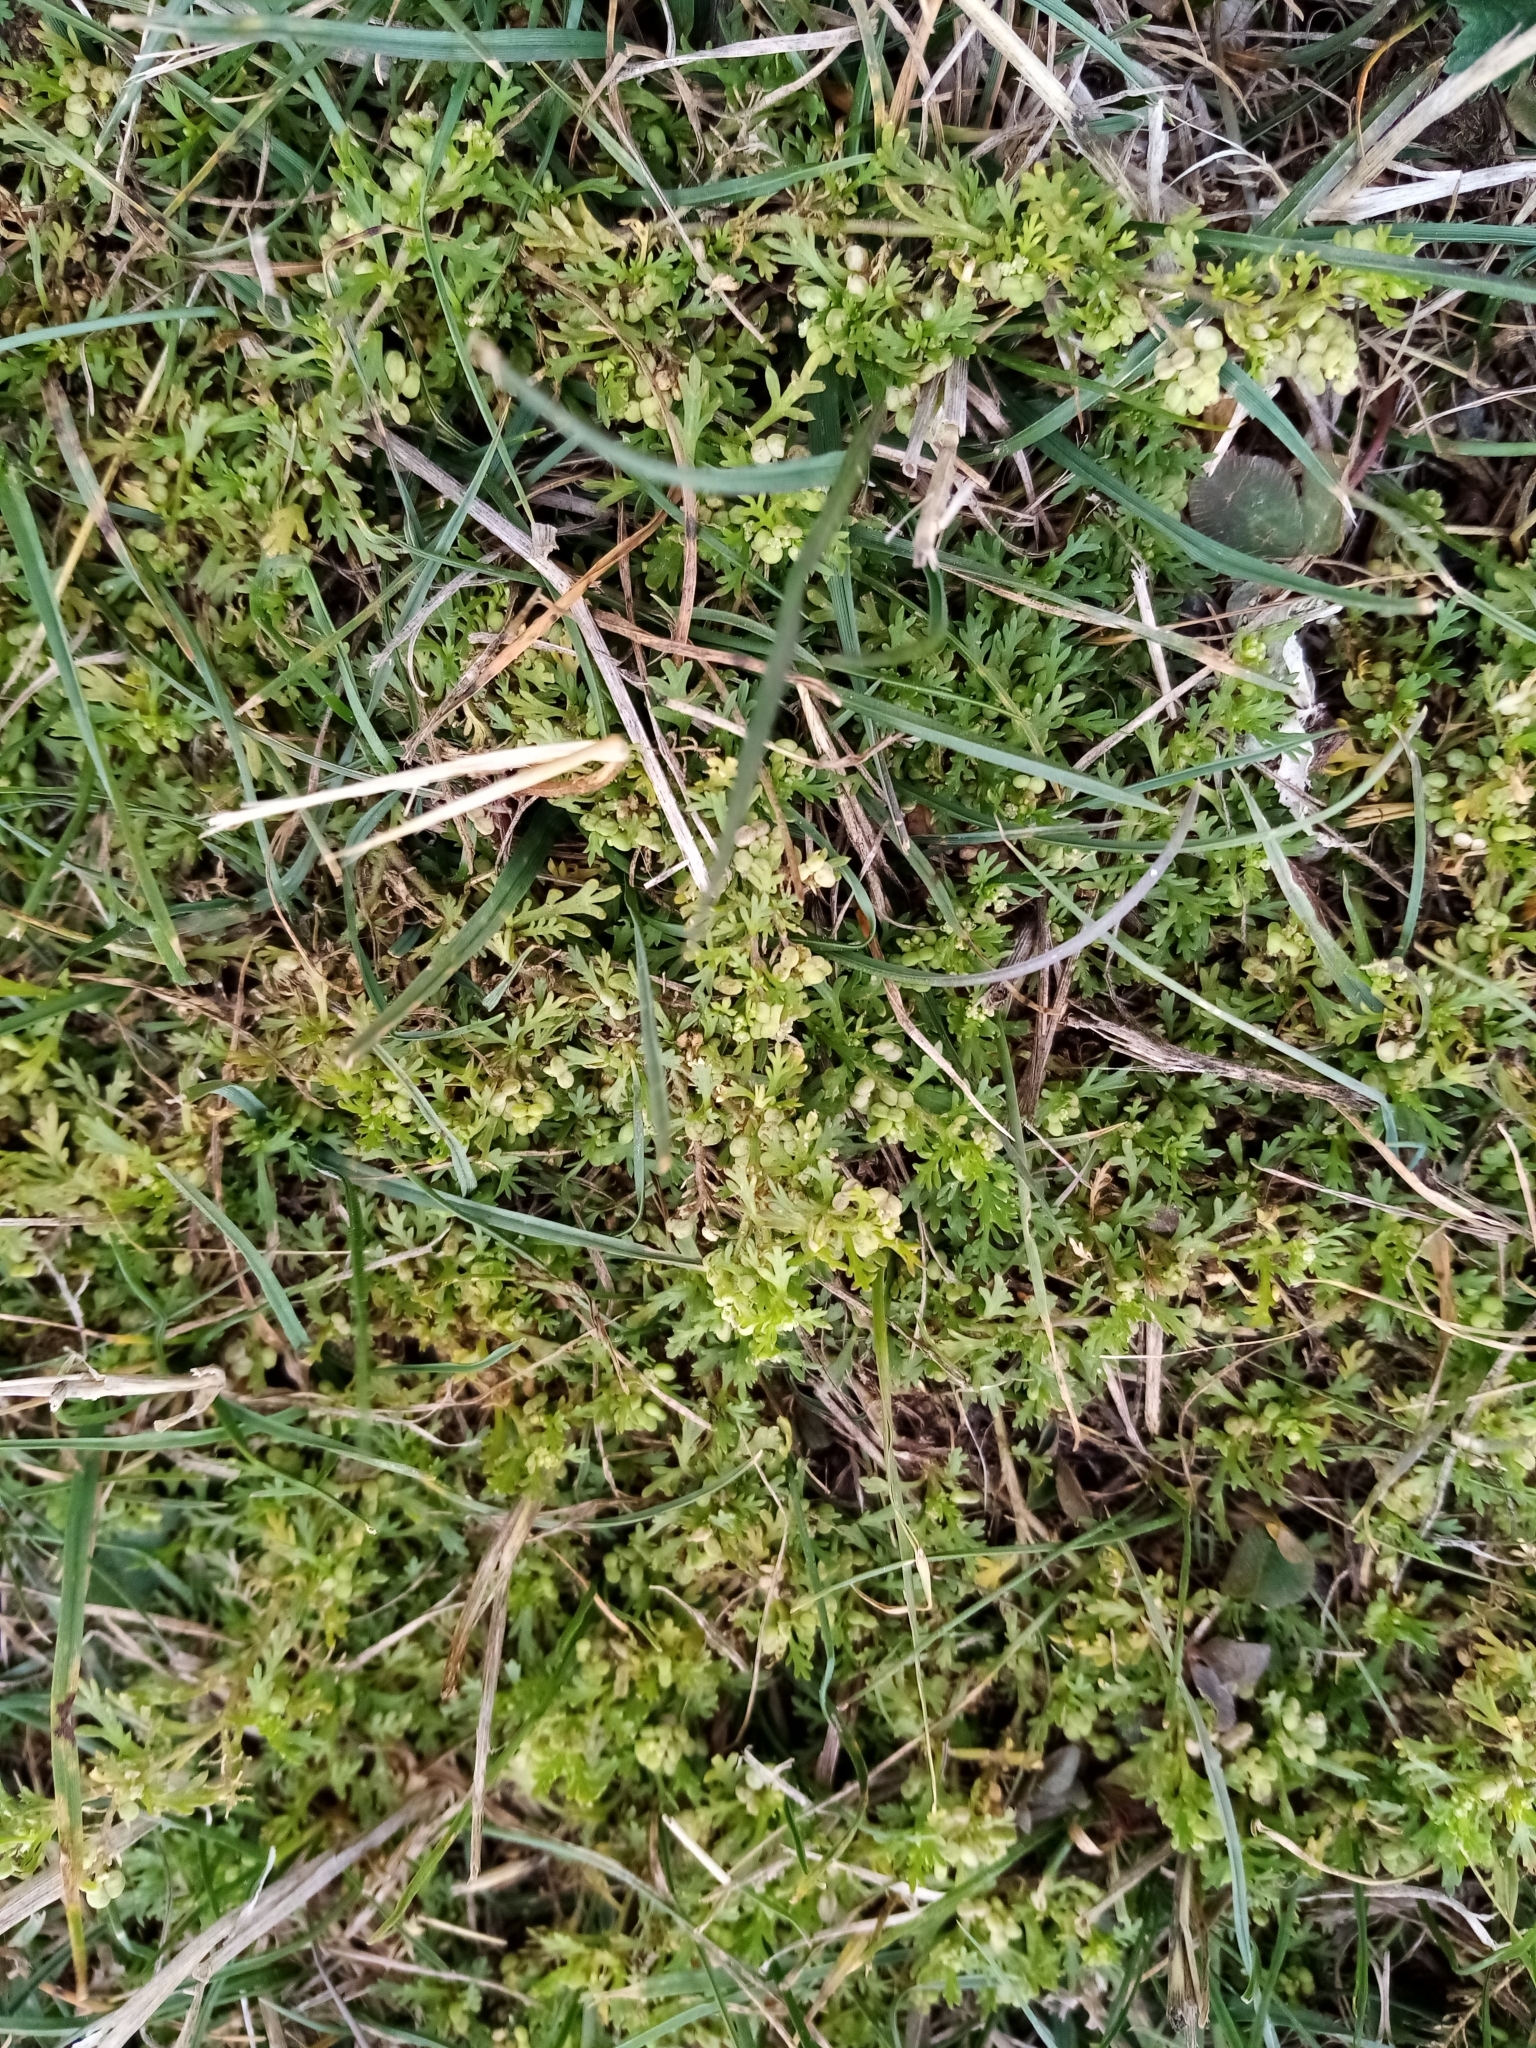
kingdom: Plantae
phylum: Tracheophyta
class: Magnoliopsida
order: Brassicales
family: Brassicaceae
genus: Lepidium
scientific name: Lepidium didymum
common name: Lesser swinecress
